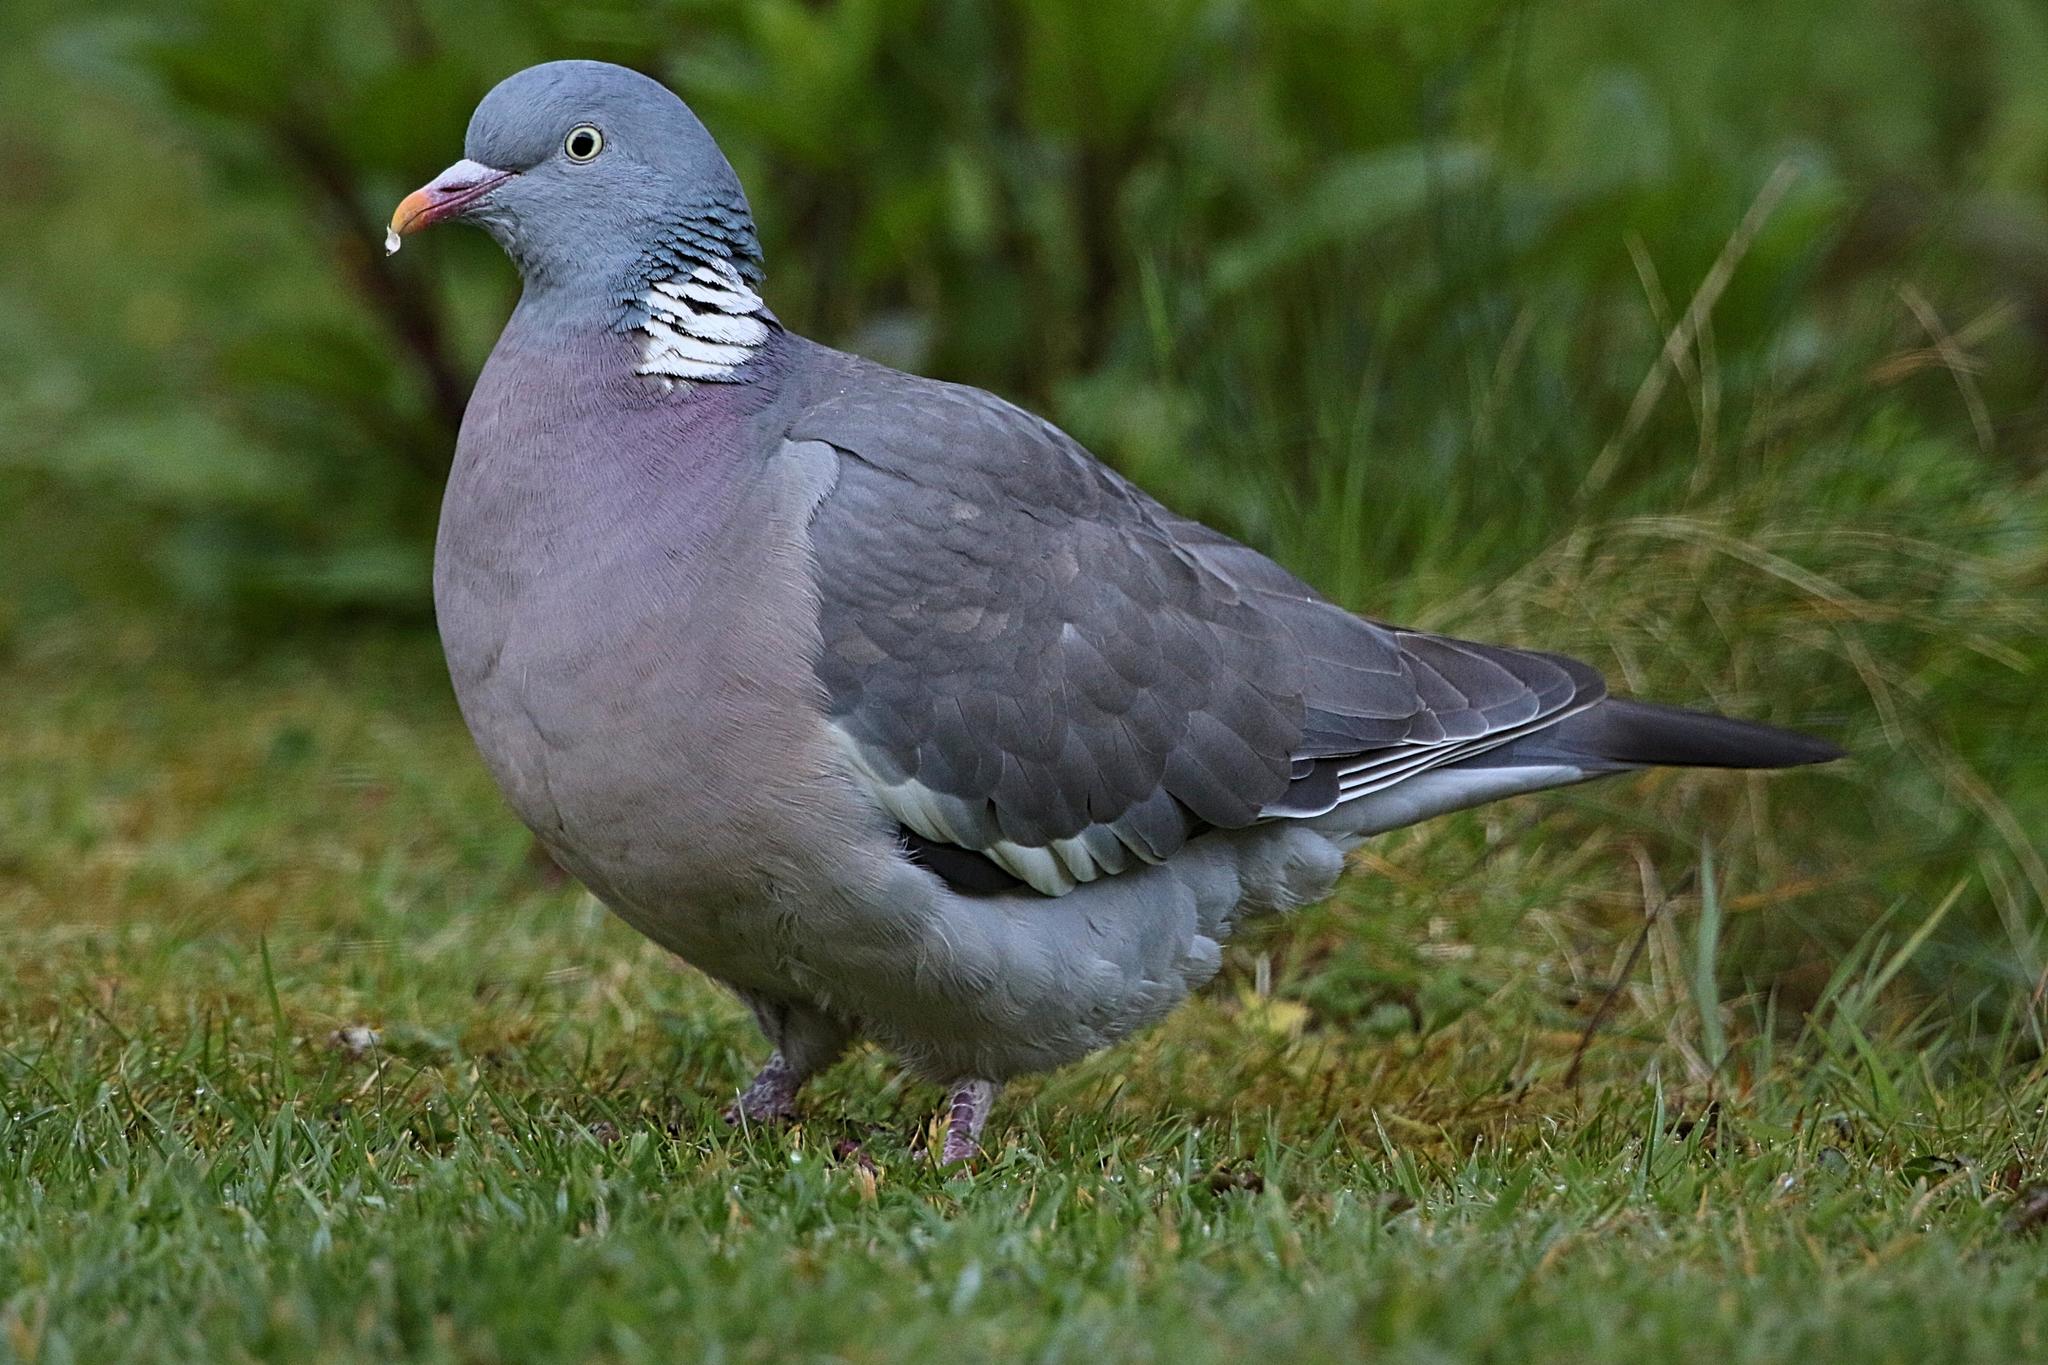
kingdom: Animalia
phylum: Chordata
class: Aves
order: Columbiformes
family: Columbidae
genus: Columba
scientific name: Columba palumbus
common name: Common wood pigeon
